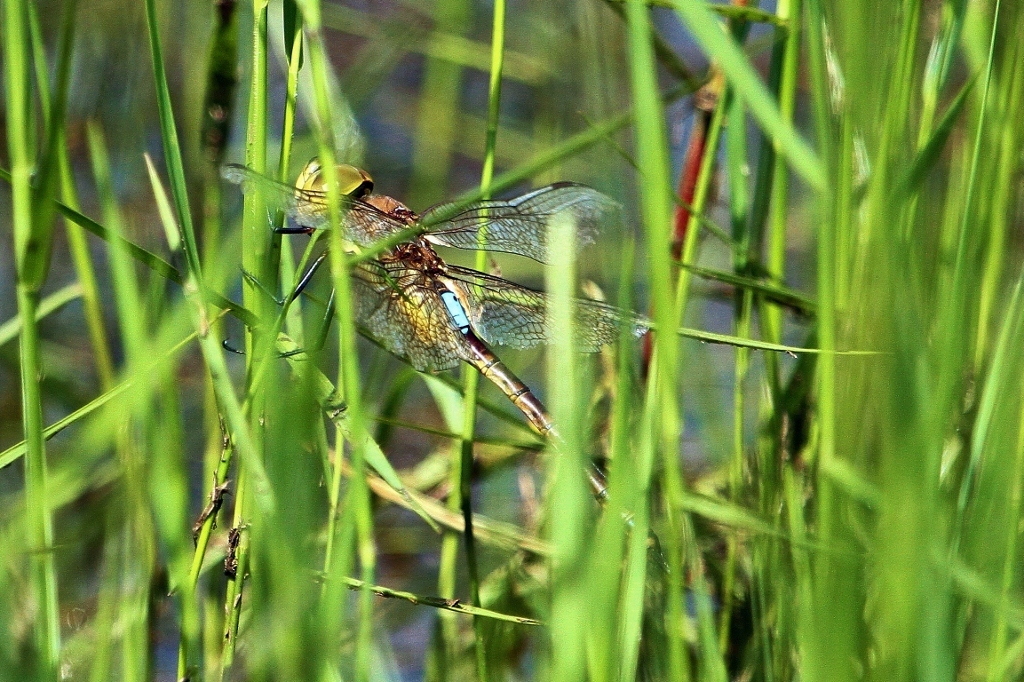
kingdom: Animalia
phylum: Arthropoda
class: Insecta
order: Odonata
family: Aeshnidae
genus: Anax
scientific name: Anax ephippiger
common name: Vagrant emperor
